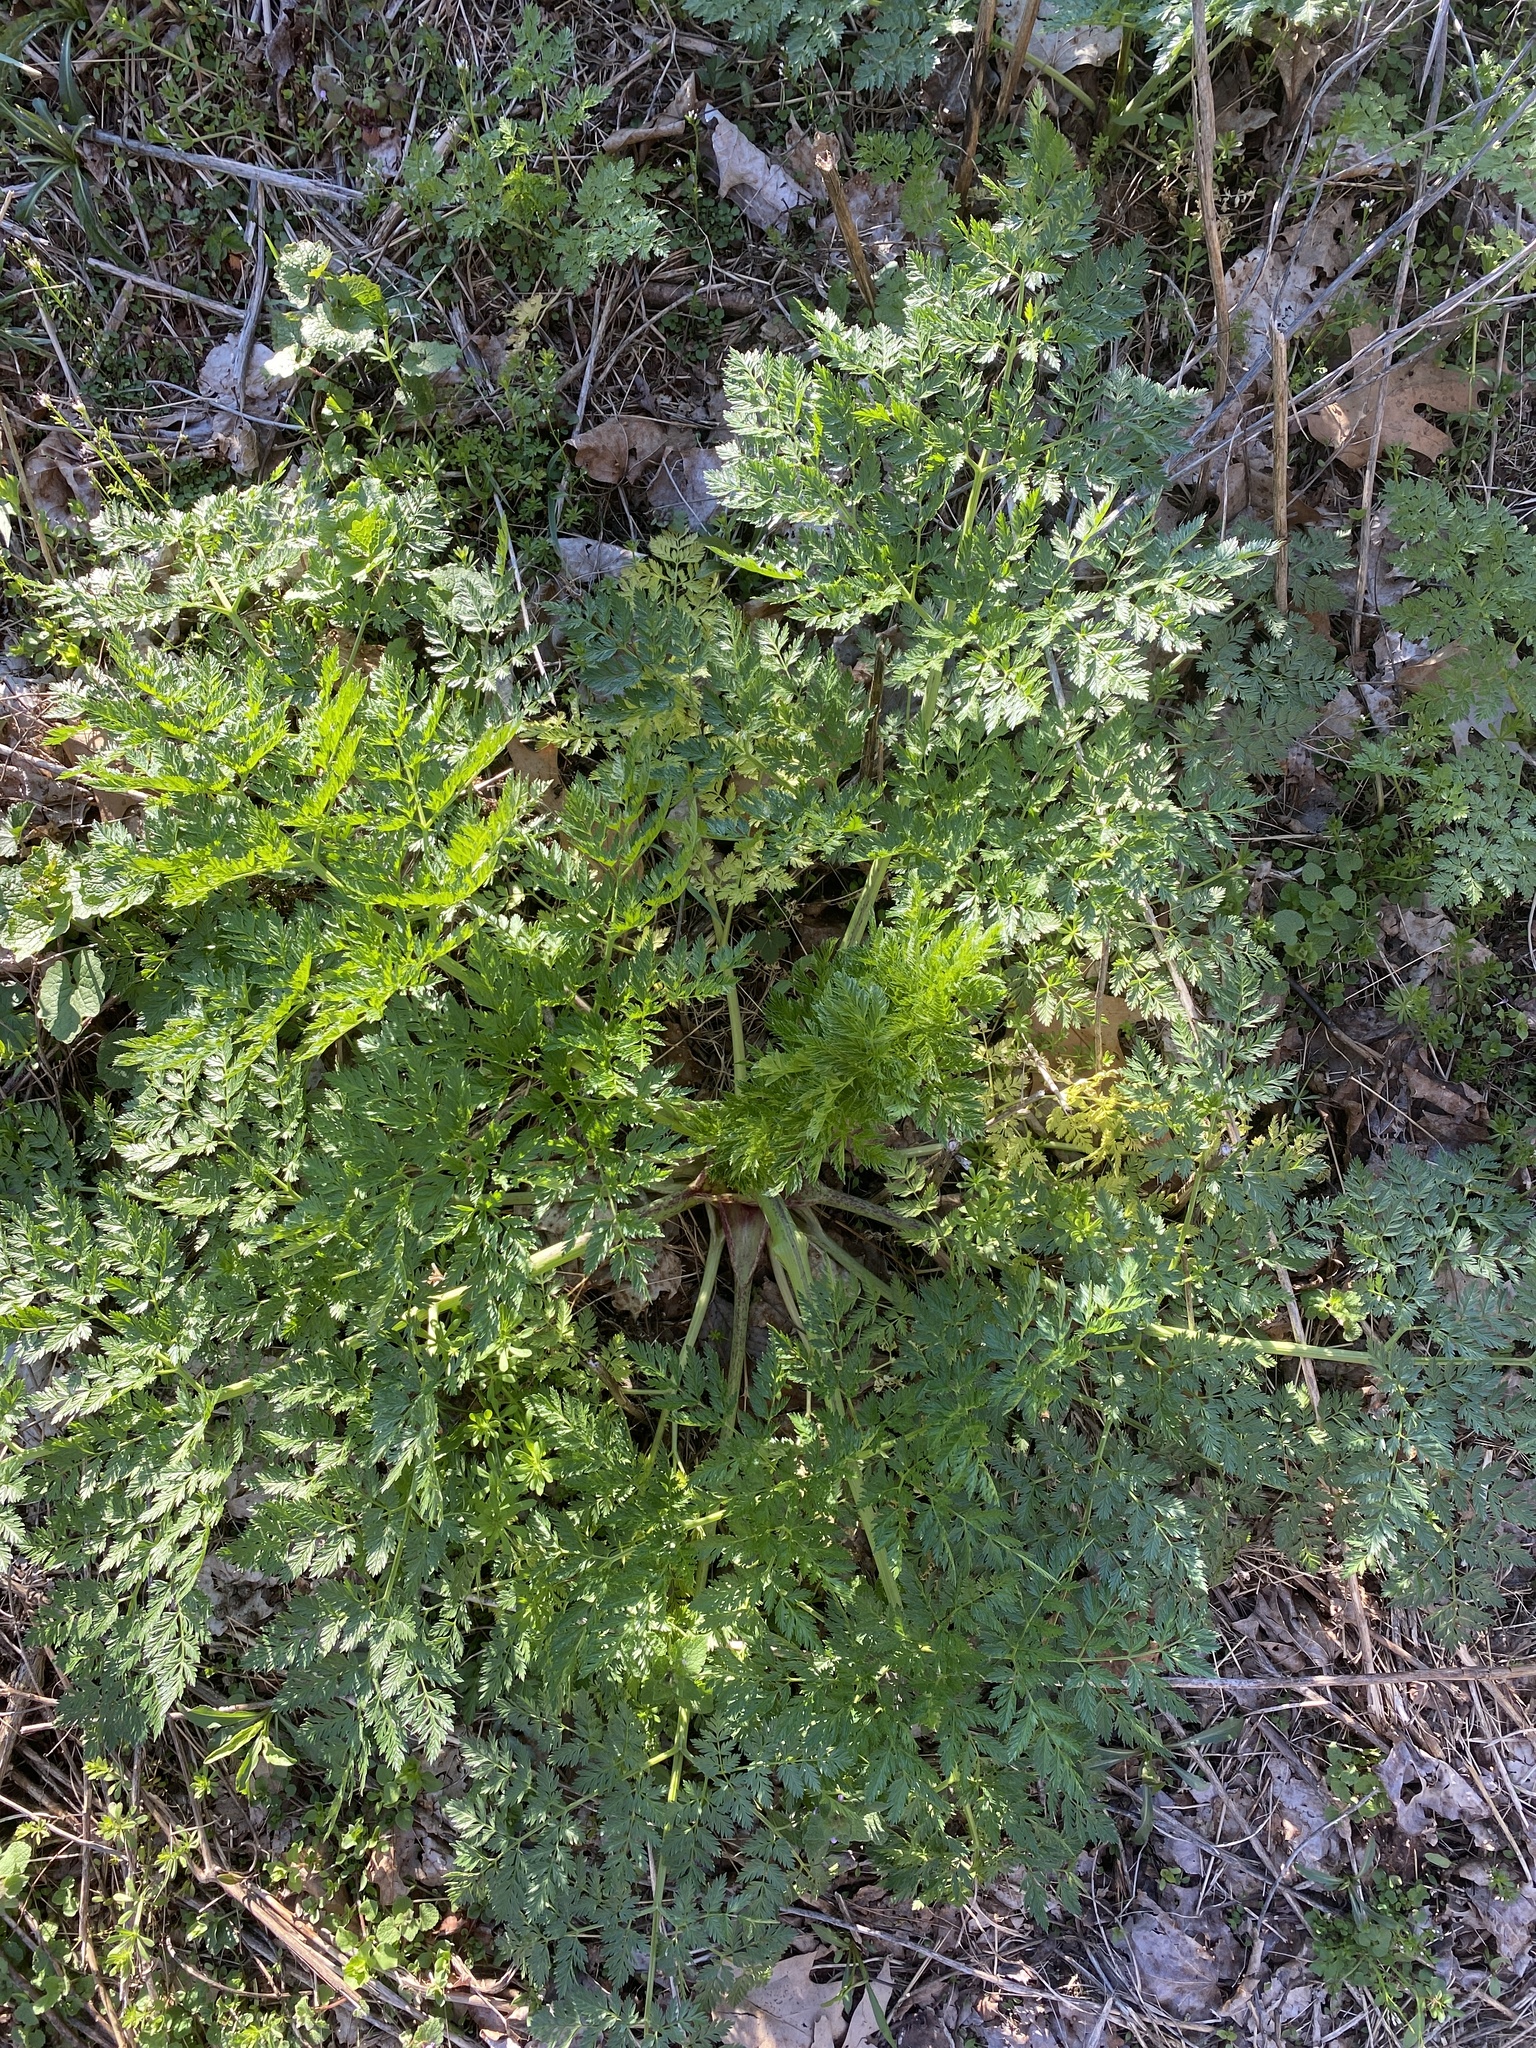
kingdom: Plantae
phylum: Tracheophyta
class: Magnoliopsida
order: Apiales
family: Apiaceae
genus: Conium
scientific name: Conium maculatum
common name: Hemlock
